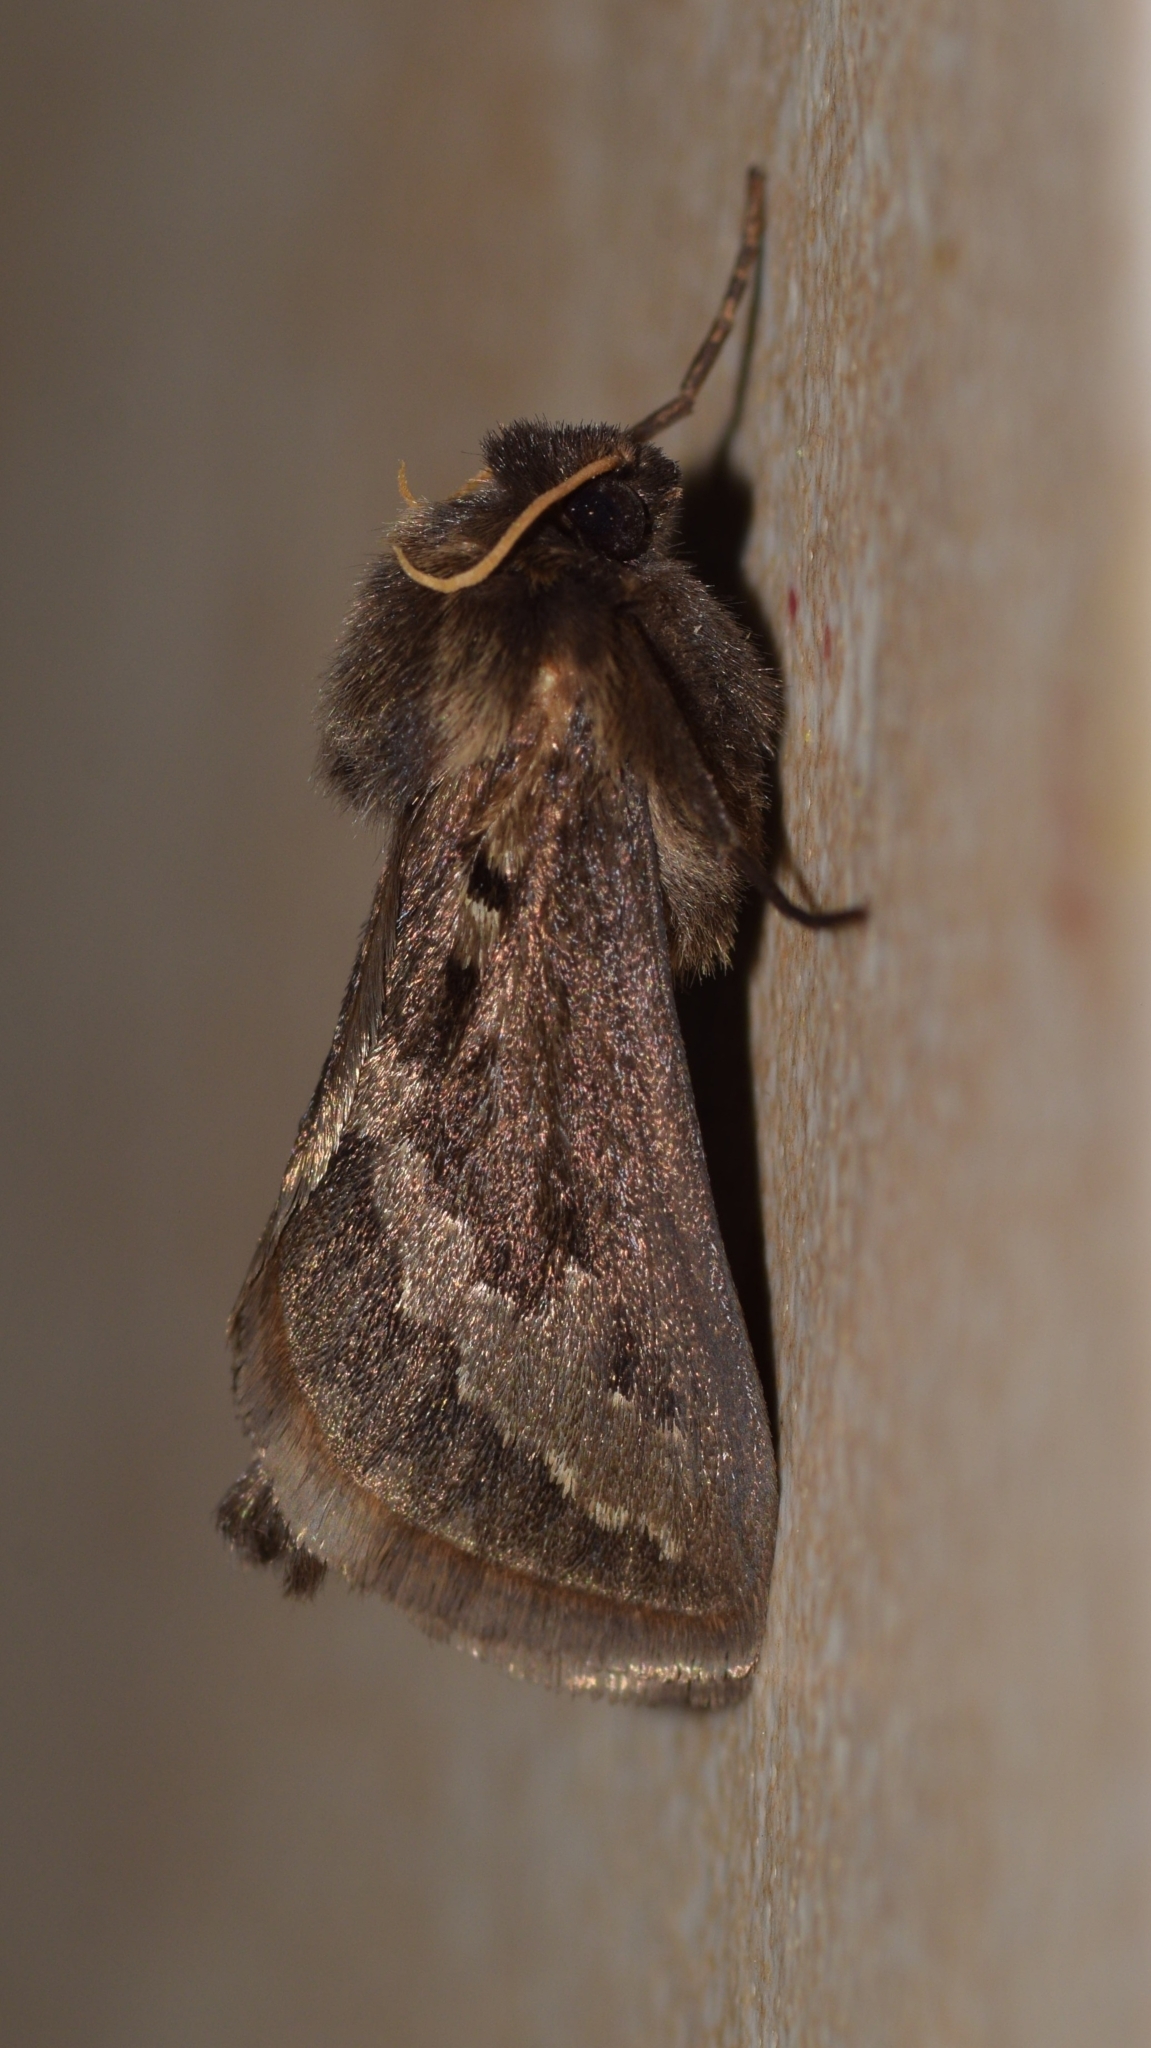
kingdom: Animalia
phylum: Arthropoda
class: Insecta
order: Lepidoptera
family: Hepialidae
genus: Eudalaca
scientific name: Eudalaca homoterma
